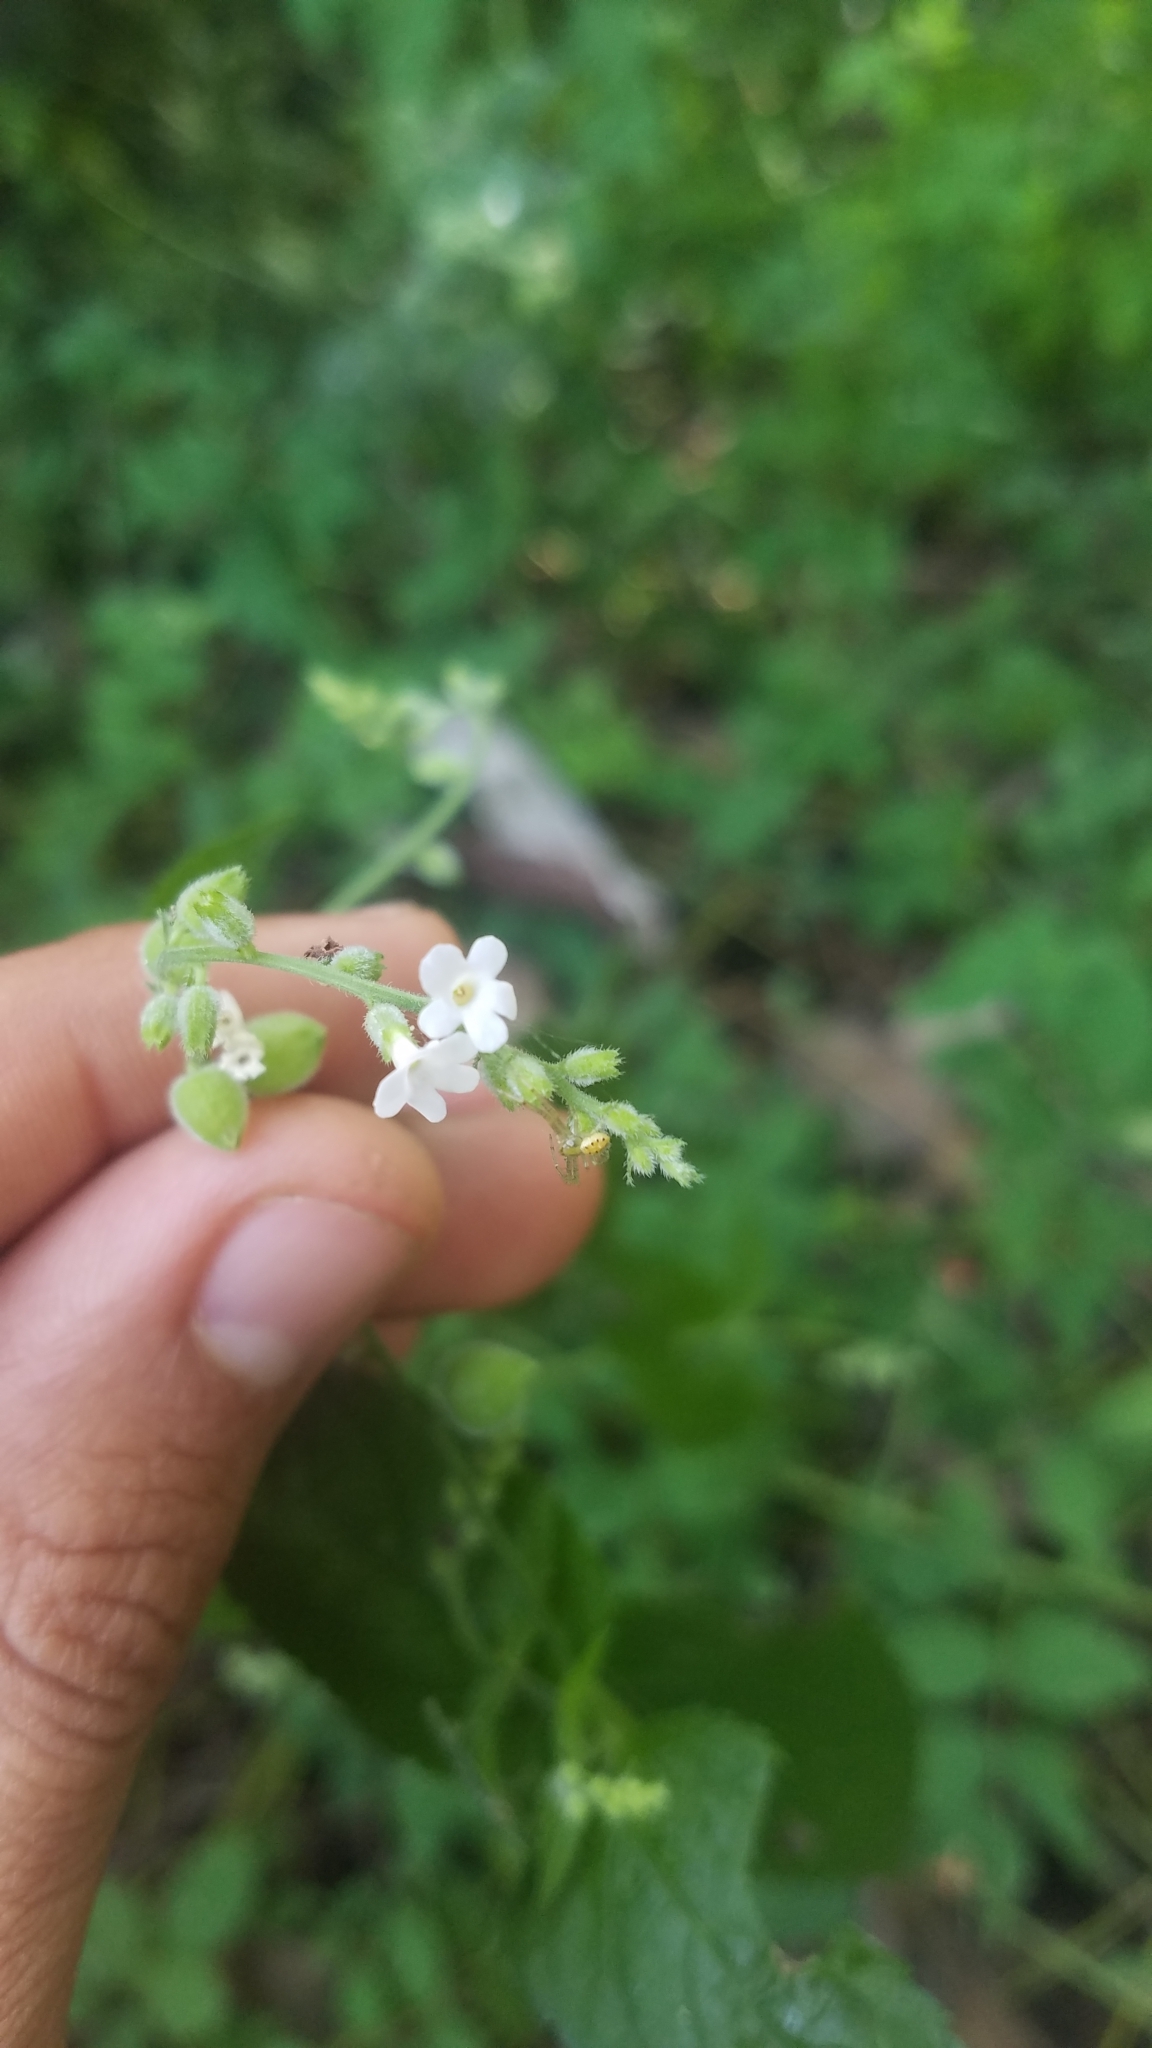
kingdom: Plantae
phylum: Tracheophyta
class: Magnoliopsida
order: Lamiales
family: Verbenaceae
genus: Priva
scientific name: Priva lappulacea
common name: Fasten-'pon-coat
